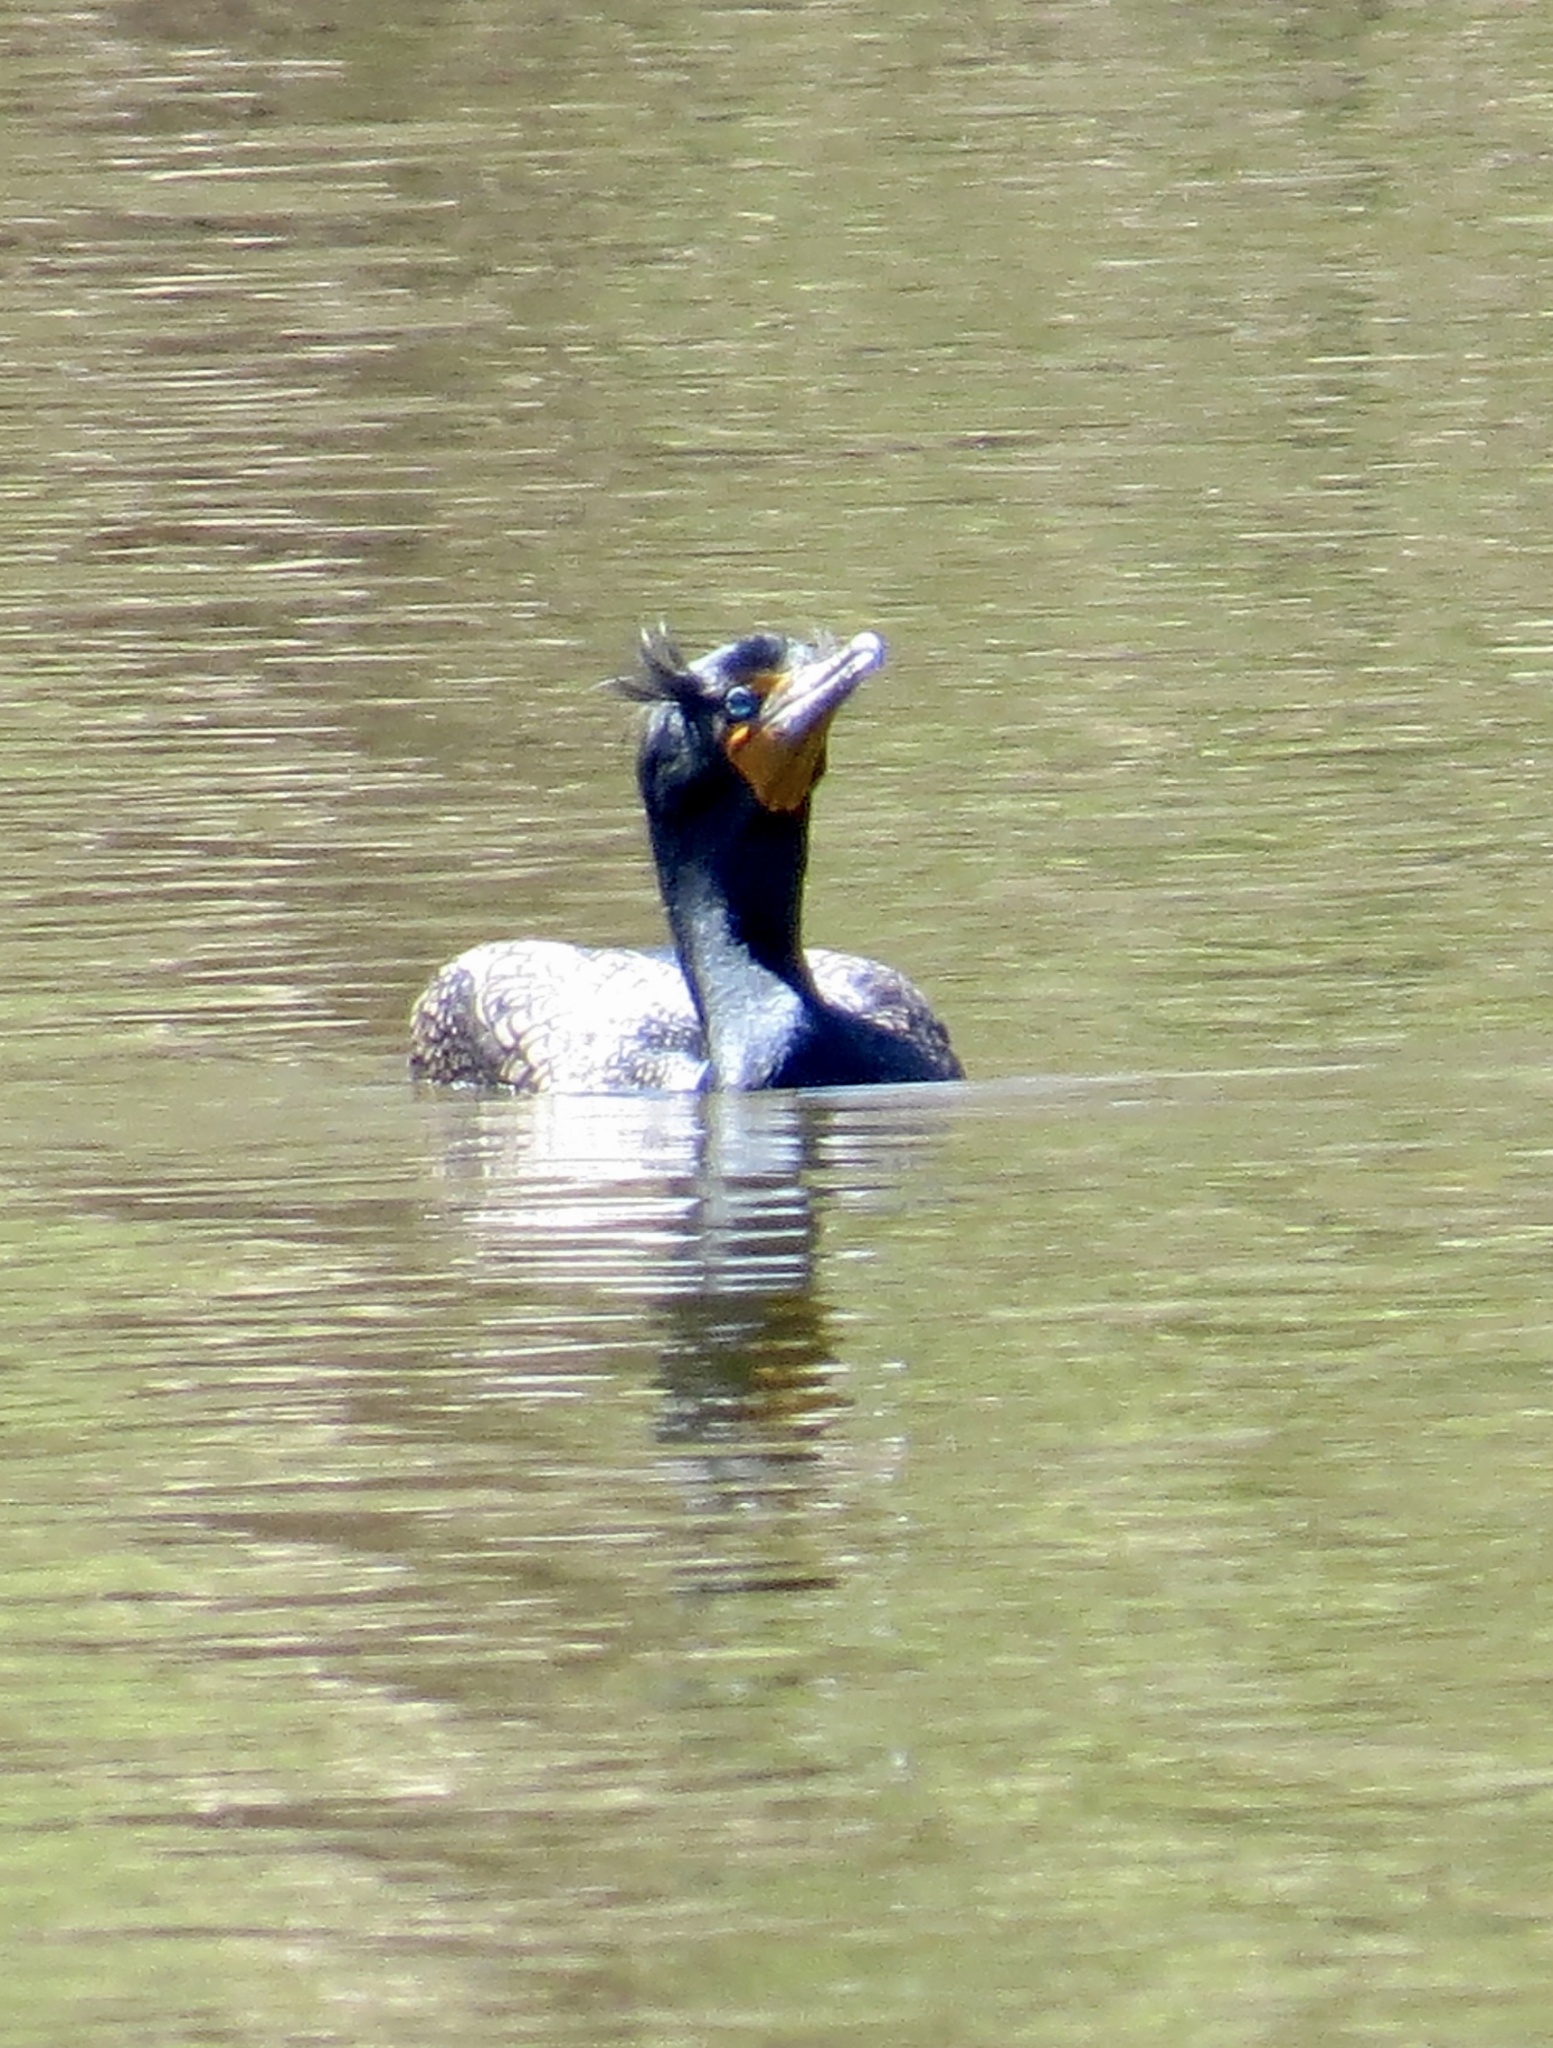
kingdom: Animalia
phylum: Chordata
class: Aves
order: Suliformes
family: Phalacrocoracidae
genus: Phalacrocorax
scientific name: Phalacrocorax auritus
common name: Double-crested cormorant
